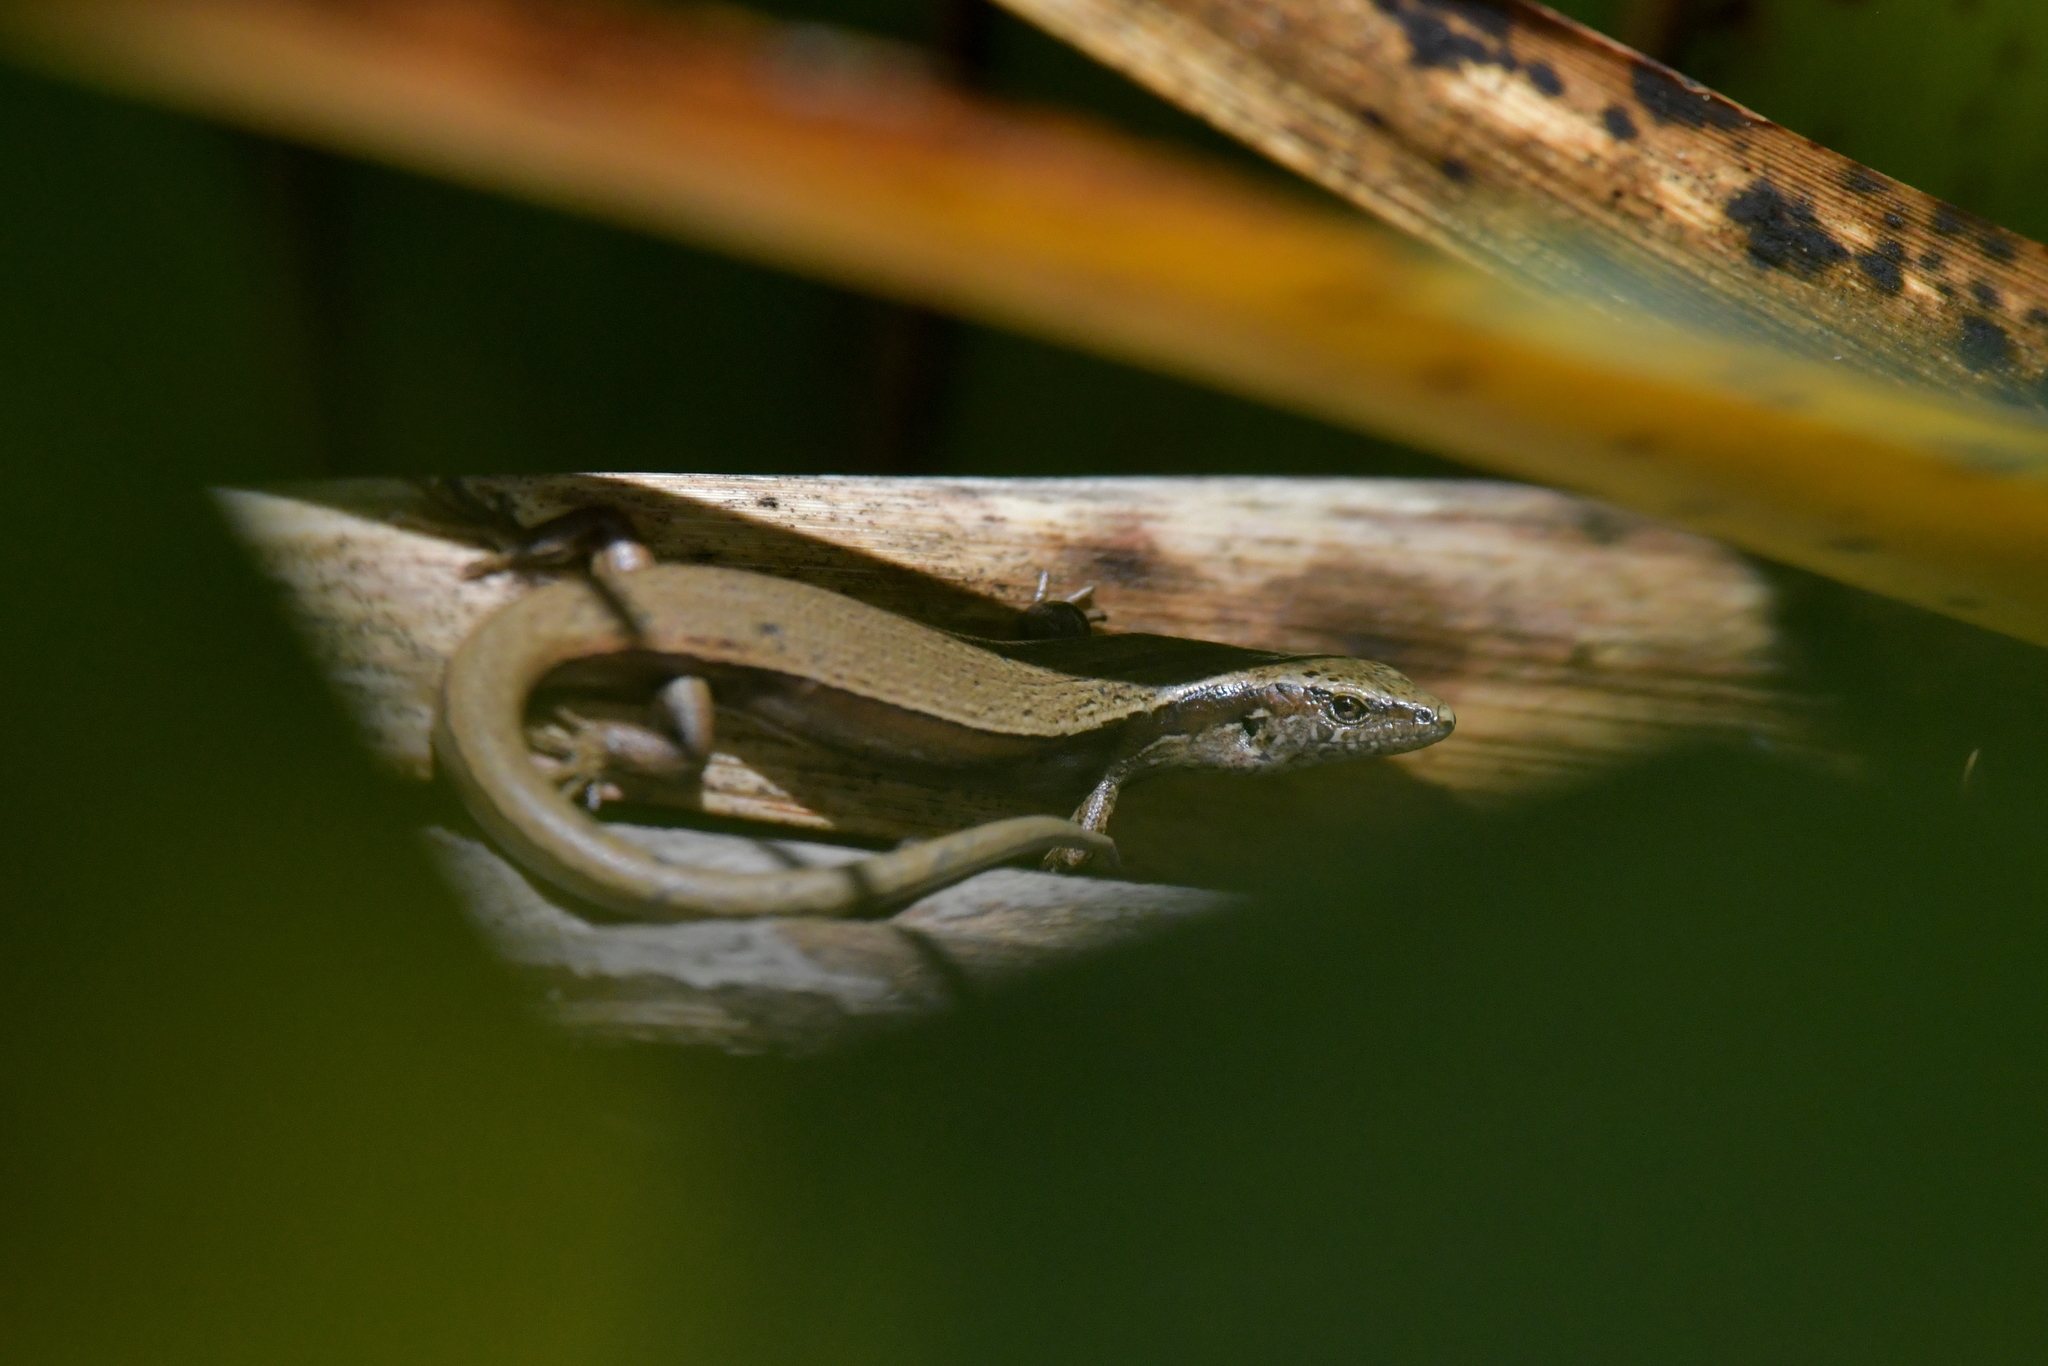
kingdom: Animalia
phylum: Chordata
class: Squamata
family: Scincidae
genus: Oligosoma
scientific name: Oligosoma zelandicum
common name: Brown skink
